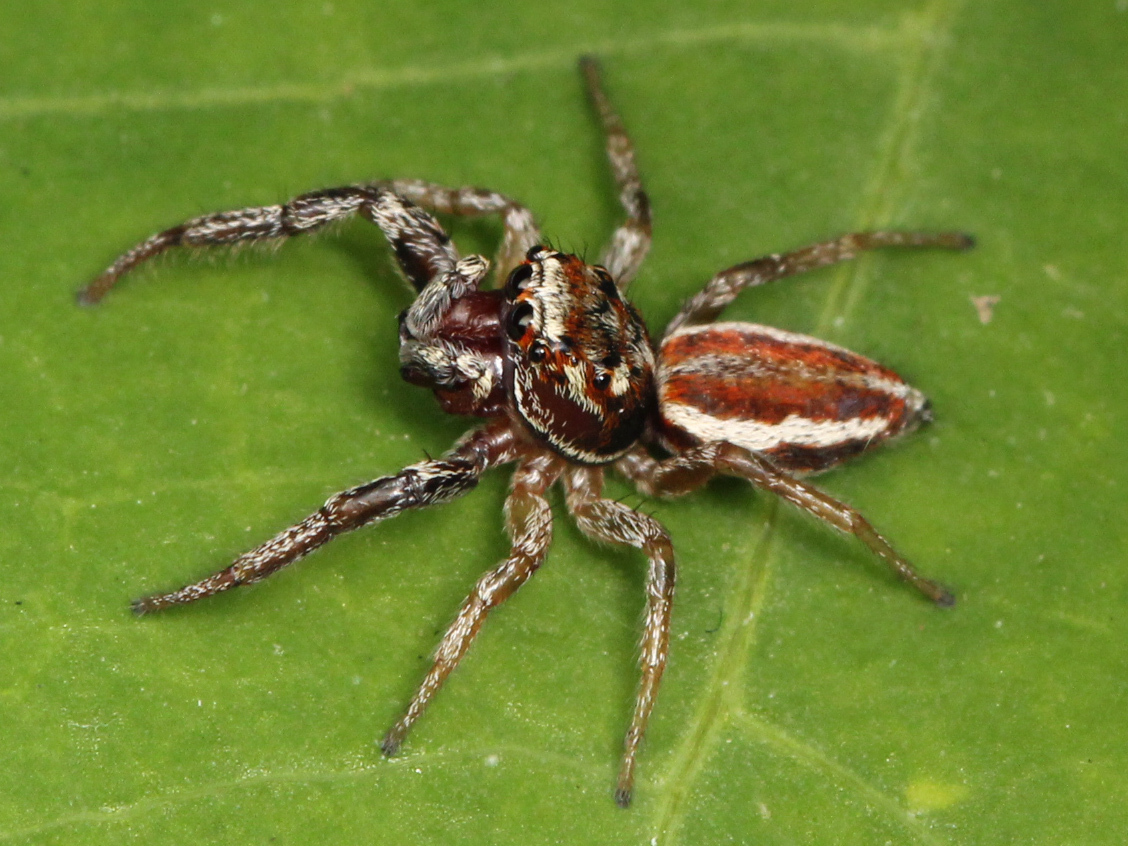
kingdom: Animalia
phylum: Arthropoda
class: Arachnida
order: Araneae
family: Salticidae
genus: Icius
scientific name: Icius hamatus
